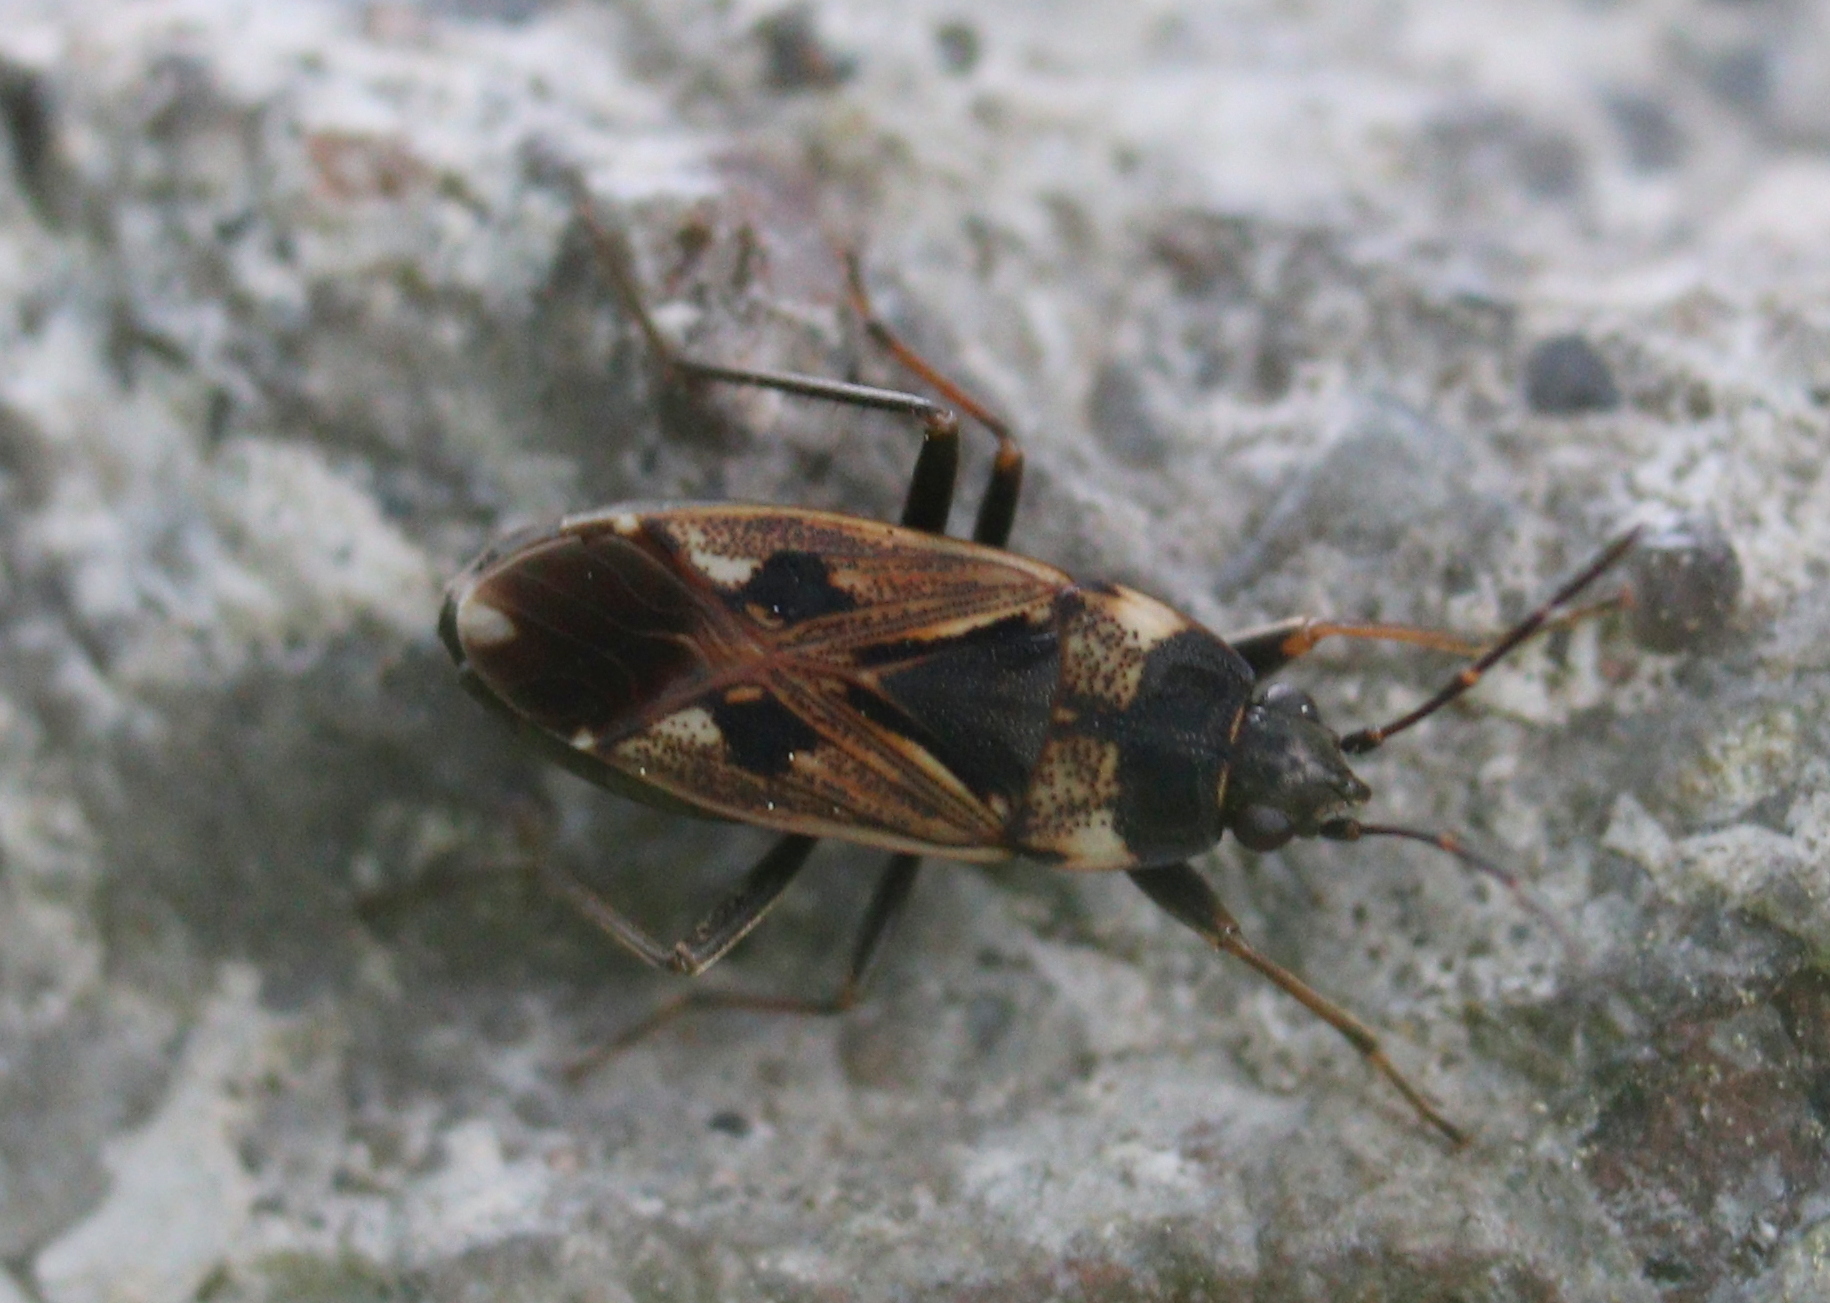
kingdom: Animalia
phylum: Arthropoda
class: Insecta
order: Hemiptera
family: Rhyparochromidae
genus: Rhyparochromus
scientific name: Rhyparochromus vulgaris
